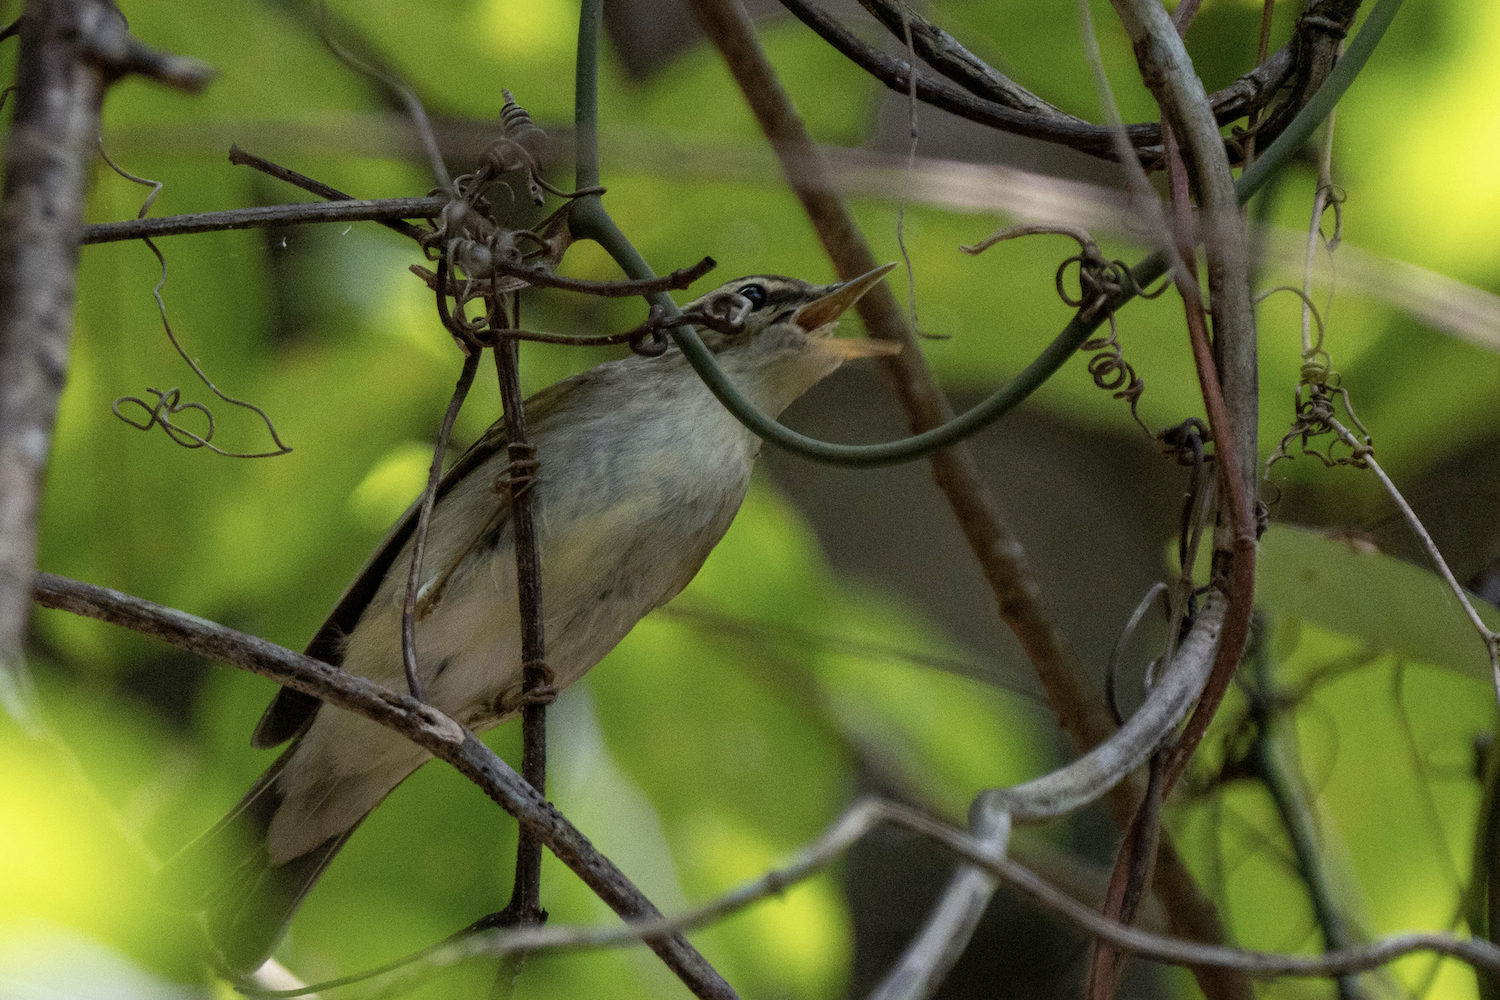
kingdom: Animalia
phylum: Chordata
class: Aves
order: Passeriformes
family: Phylloscopidae
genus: Phylloscopus
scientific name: Phylloscopus borealis
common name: Arctic warbler
